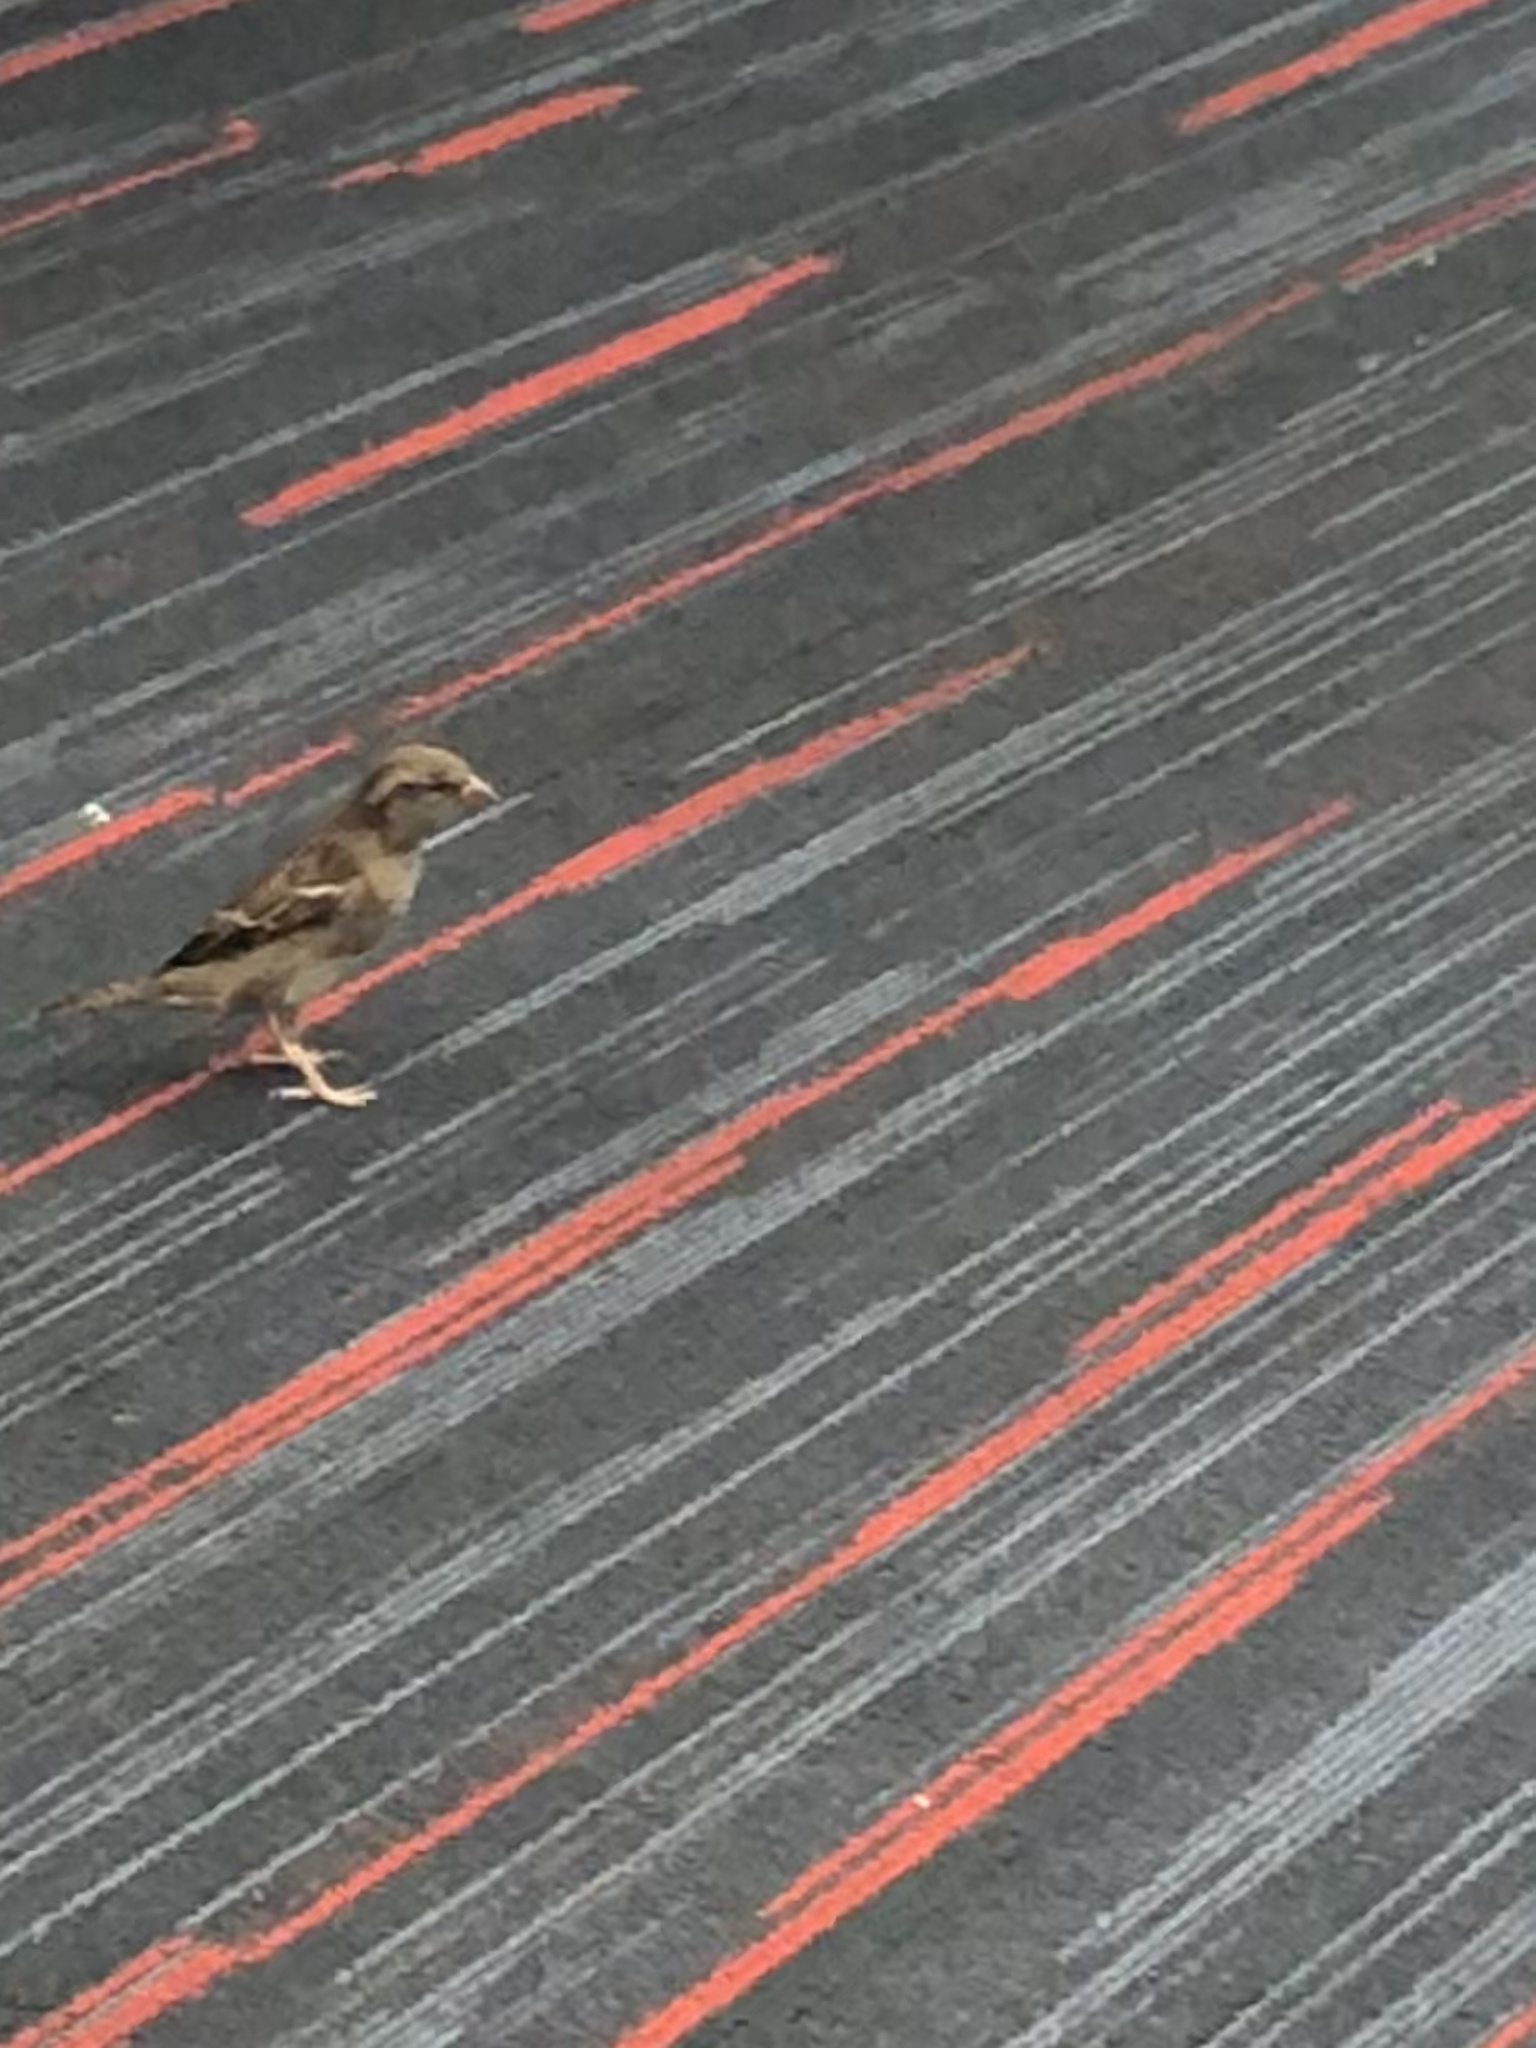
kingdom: Animalia
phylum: Chordata
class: Aves
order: Passeriformes
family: Passeridae
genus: Passer
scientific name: Passer domesticus
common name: House sparrow
